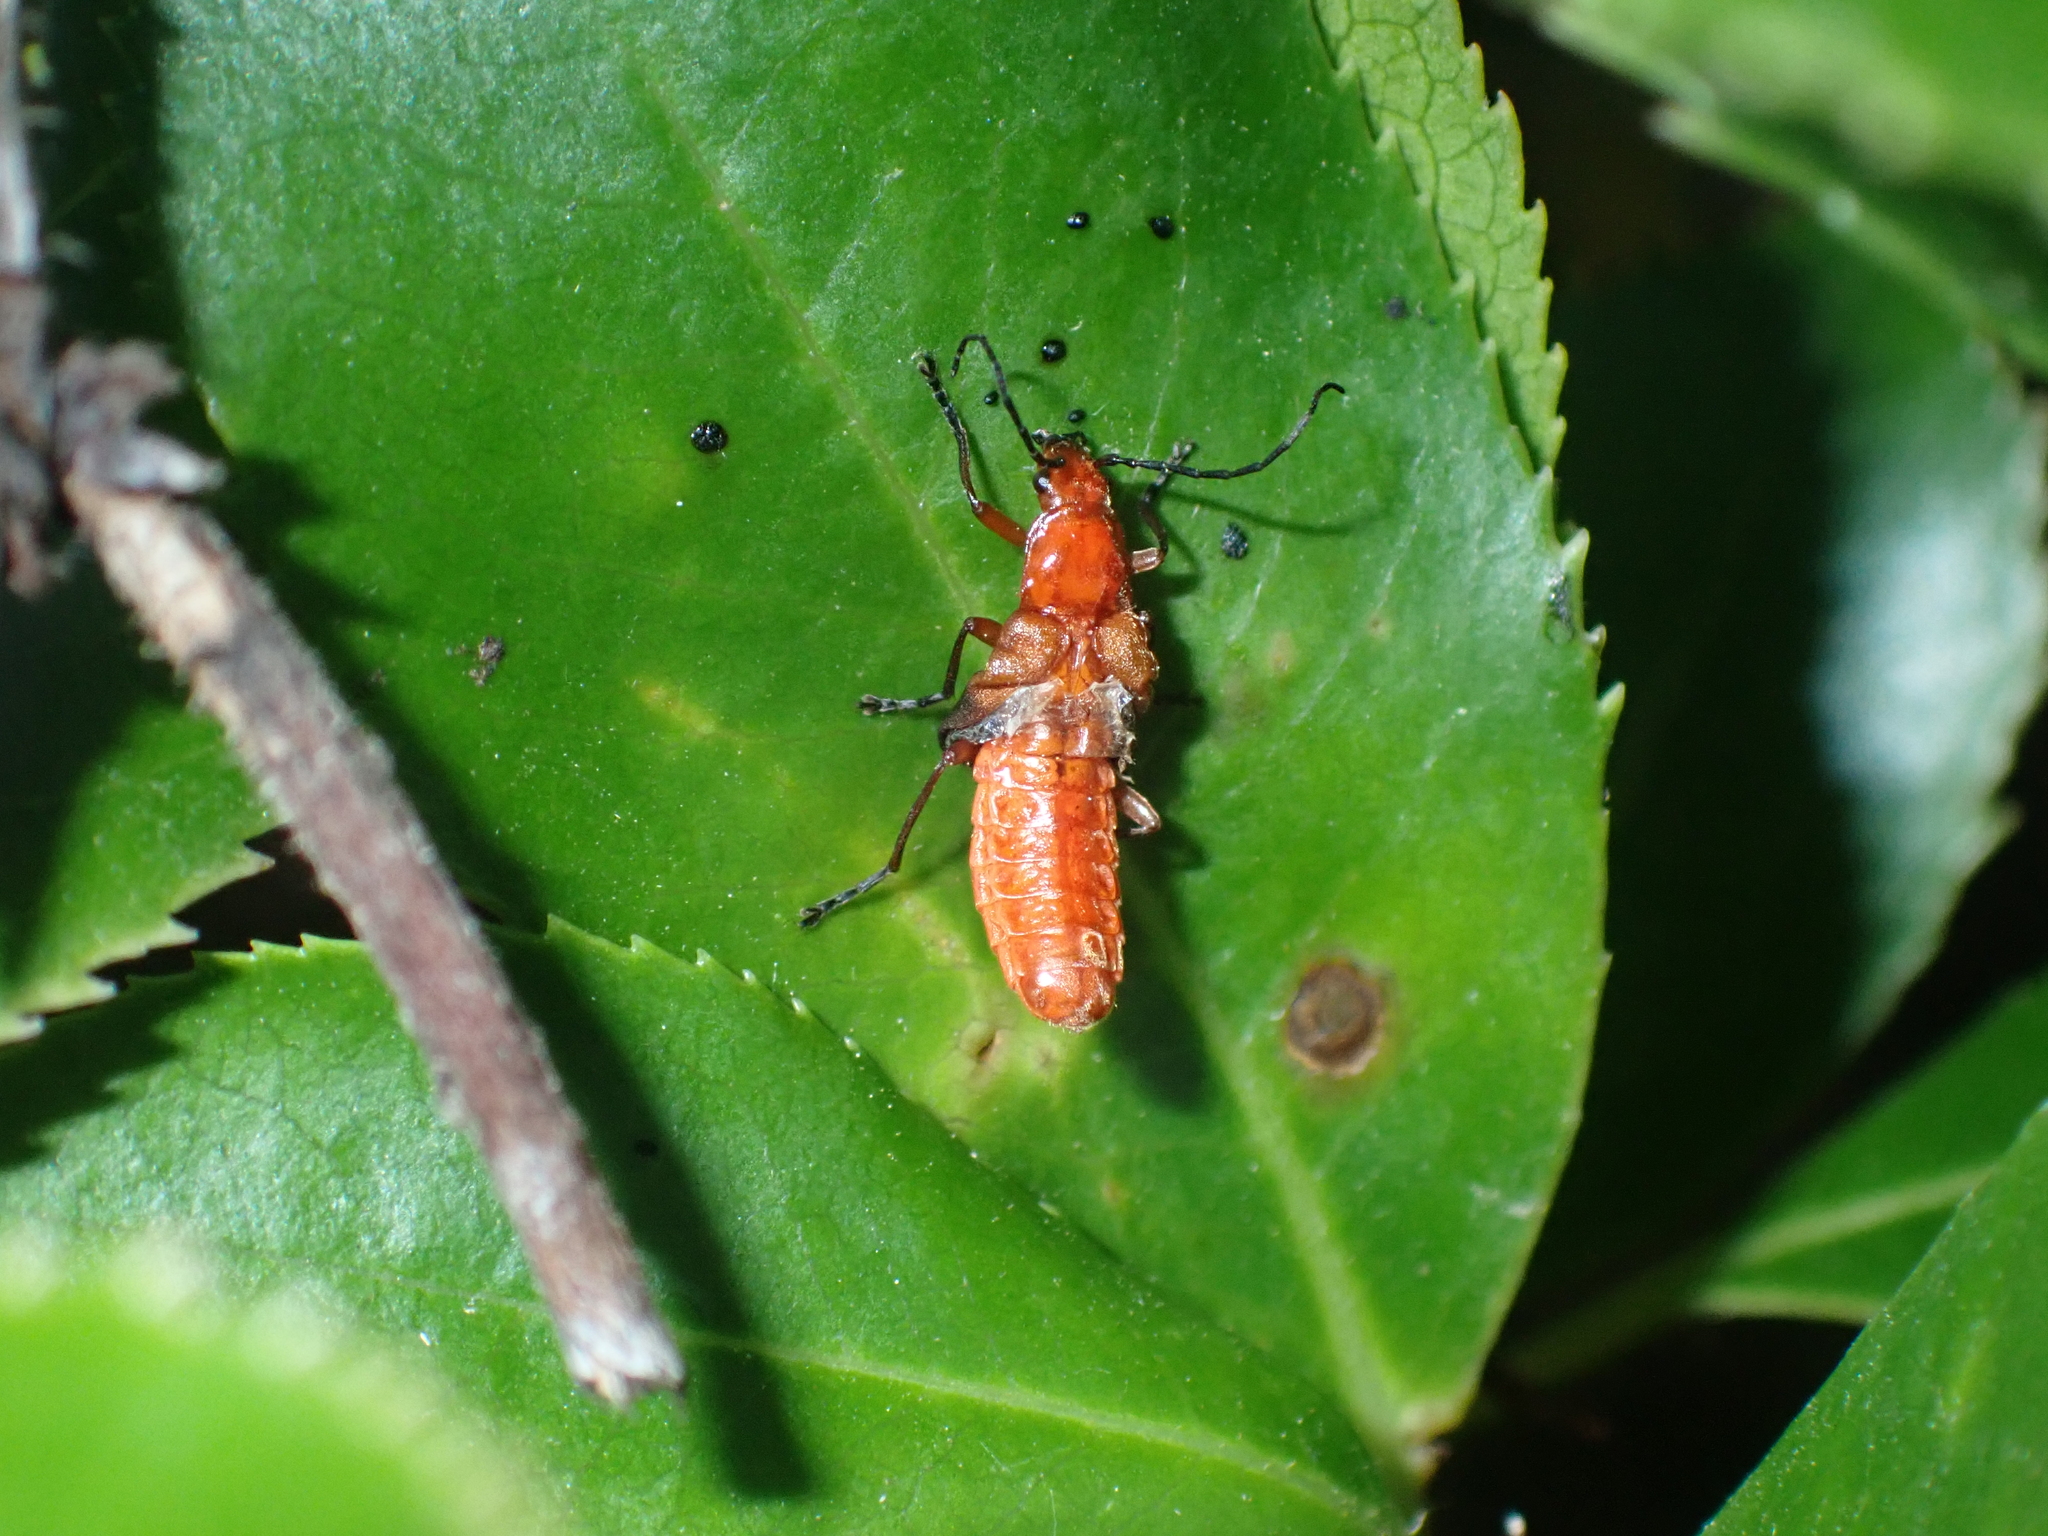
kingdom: Animalia
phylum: Arthropoda
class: Insecta
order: Coleoptera
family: Cantharidae
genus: Rhagonycha
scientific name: Rhagonycha fulva
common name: Common red soldier beetle
